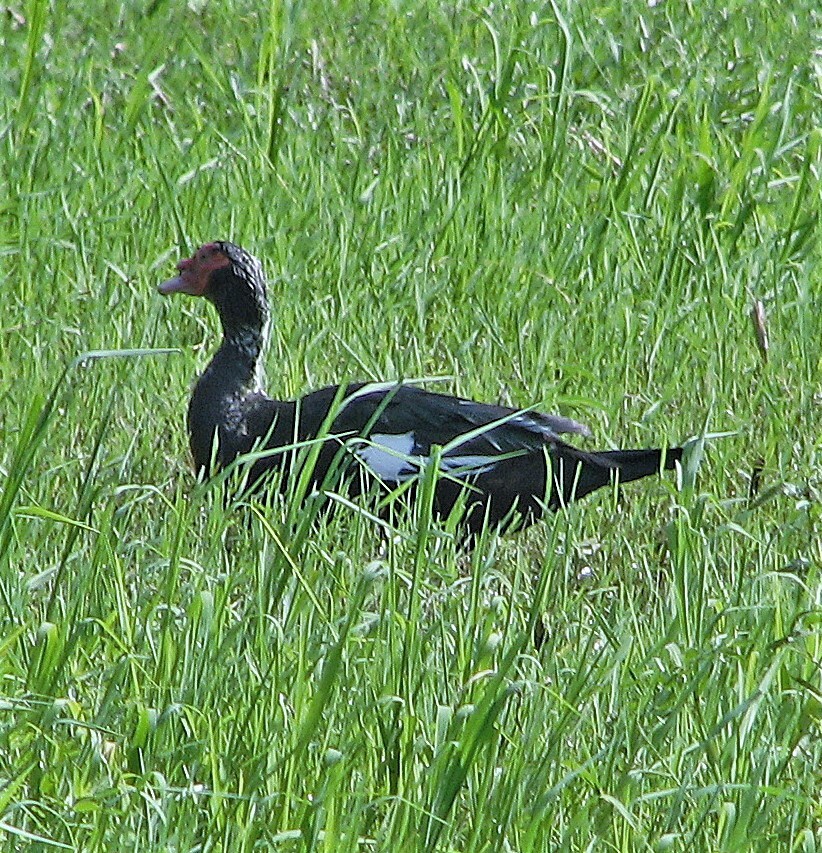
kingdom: Animalia
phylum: Chordata
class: Aves
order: Anseriformes
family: Anatidae
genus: Cairina
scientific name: Cairina moschata
